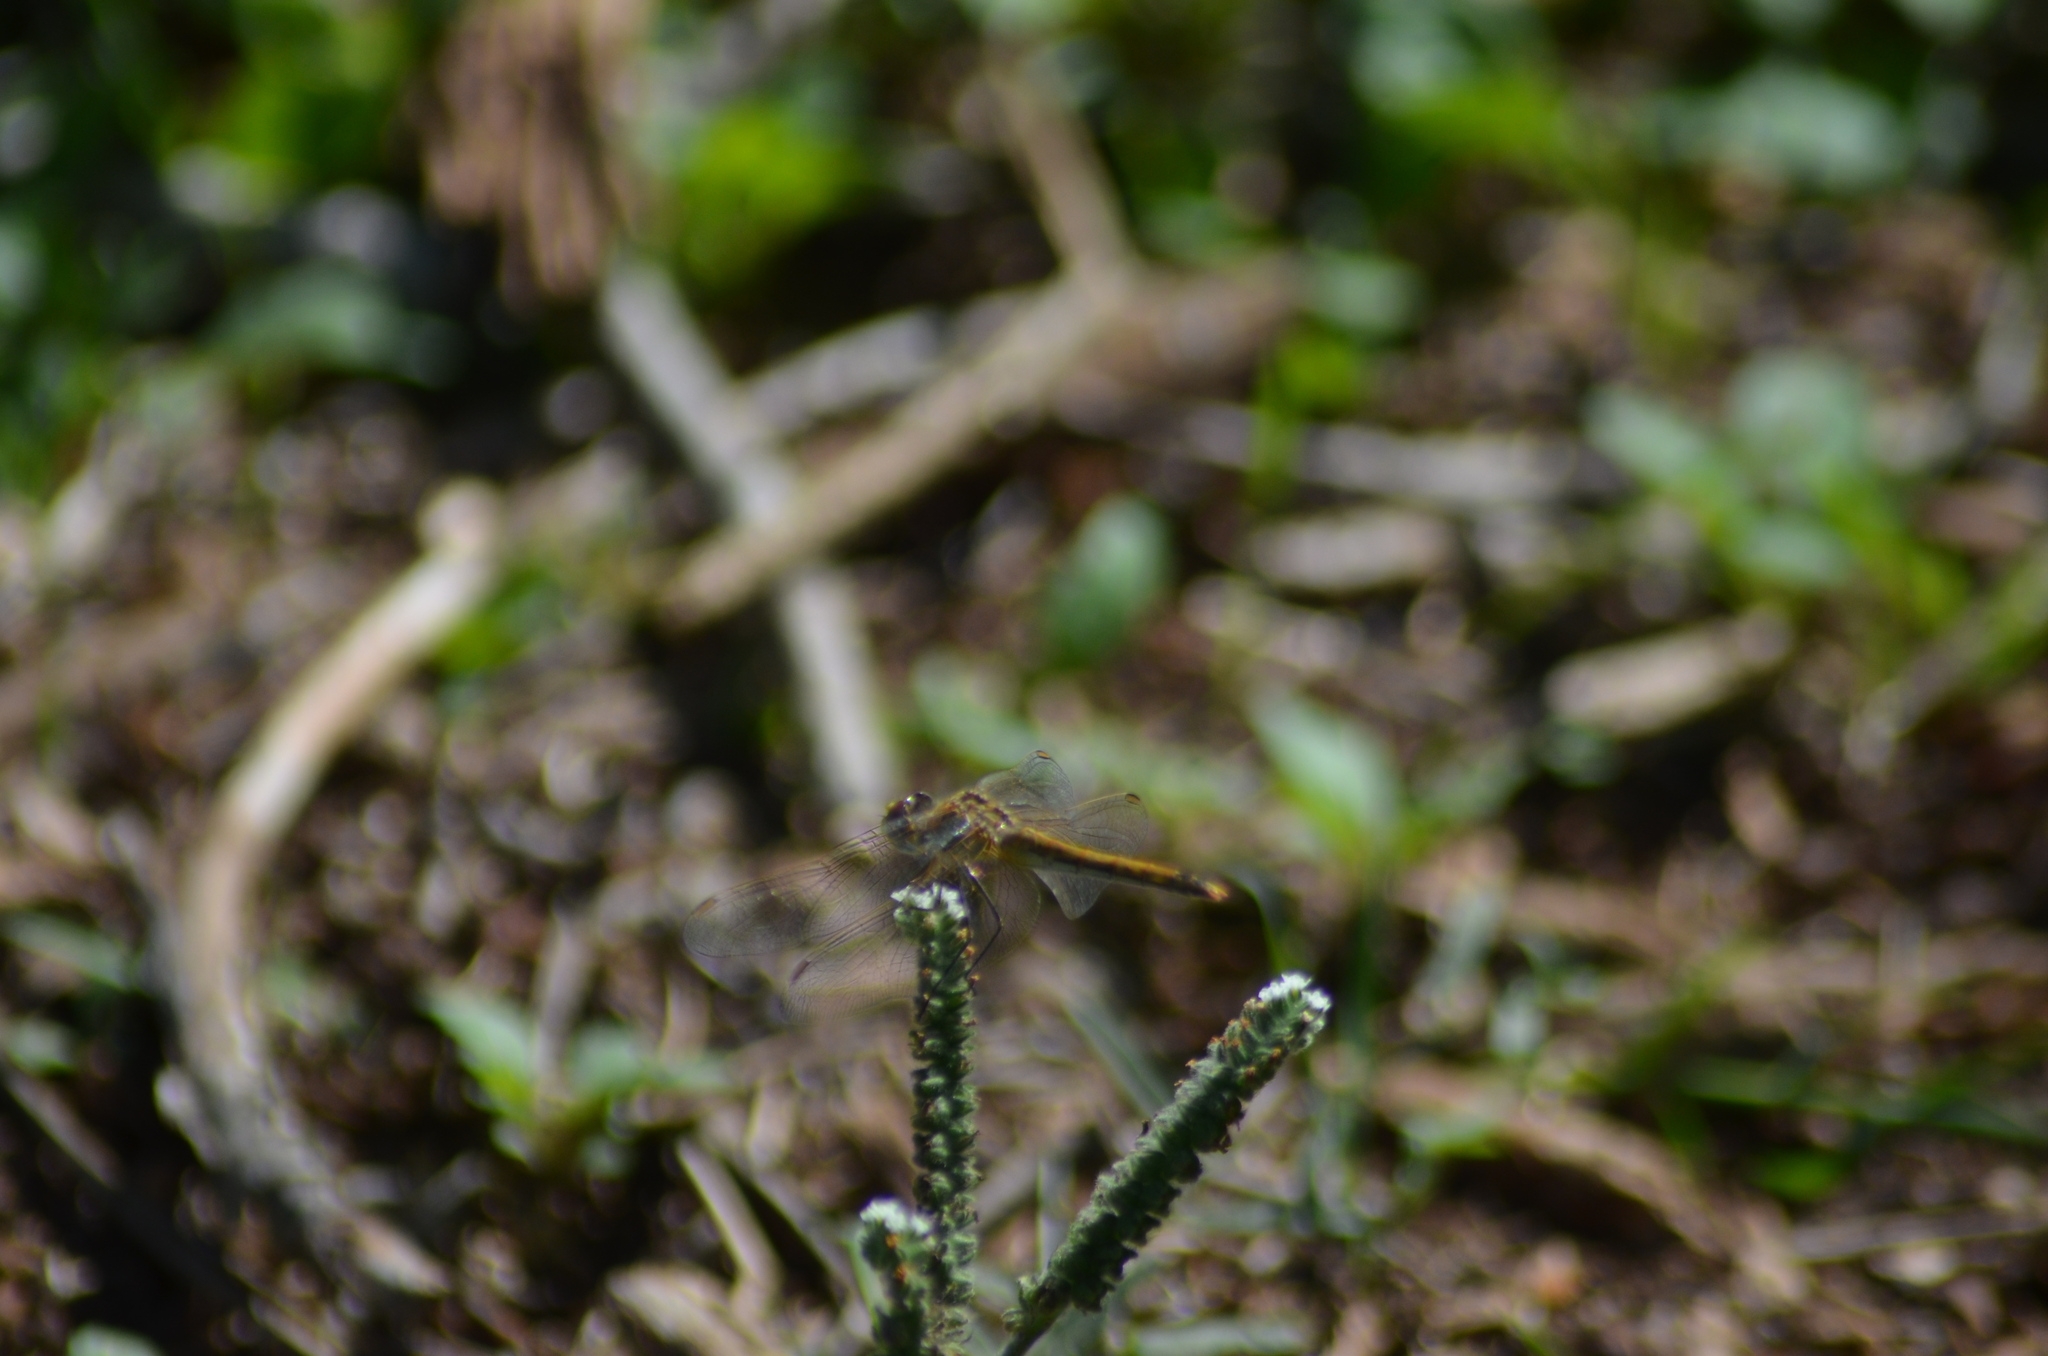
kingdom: Animalia
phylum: Arthropoda
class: Insecta
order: Odonata
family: Libellulidae
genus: Sympetrum
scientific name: Sympetrum fonscolombii
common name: Red-veined darter
